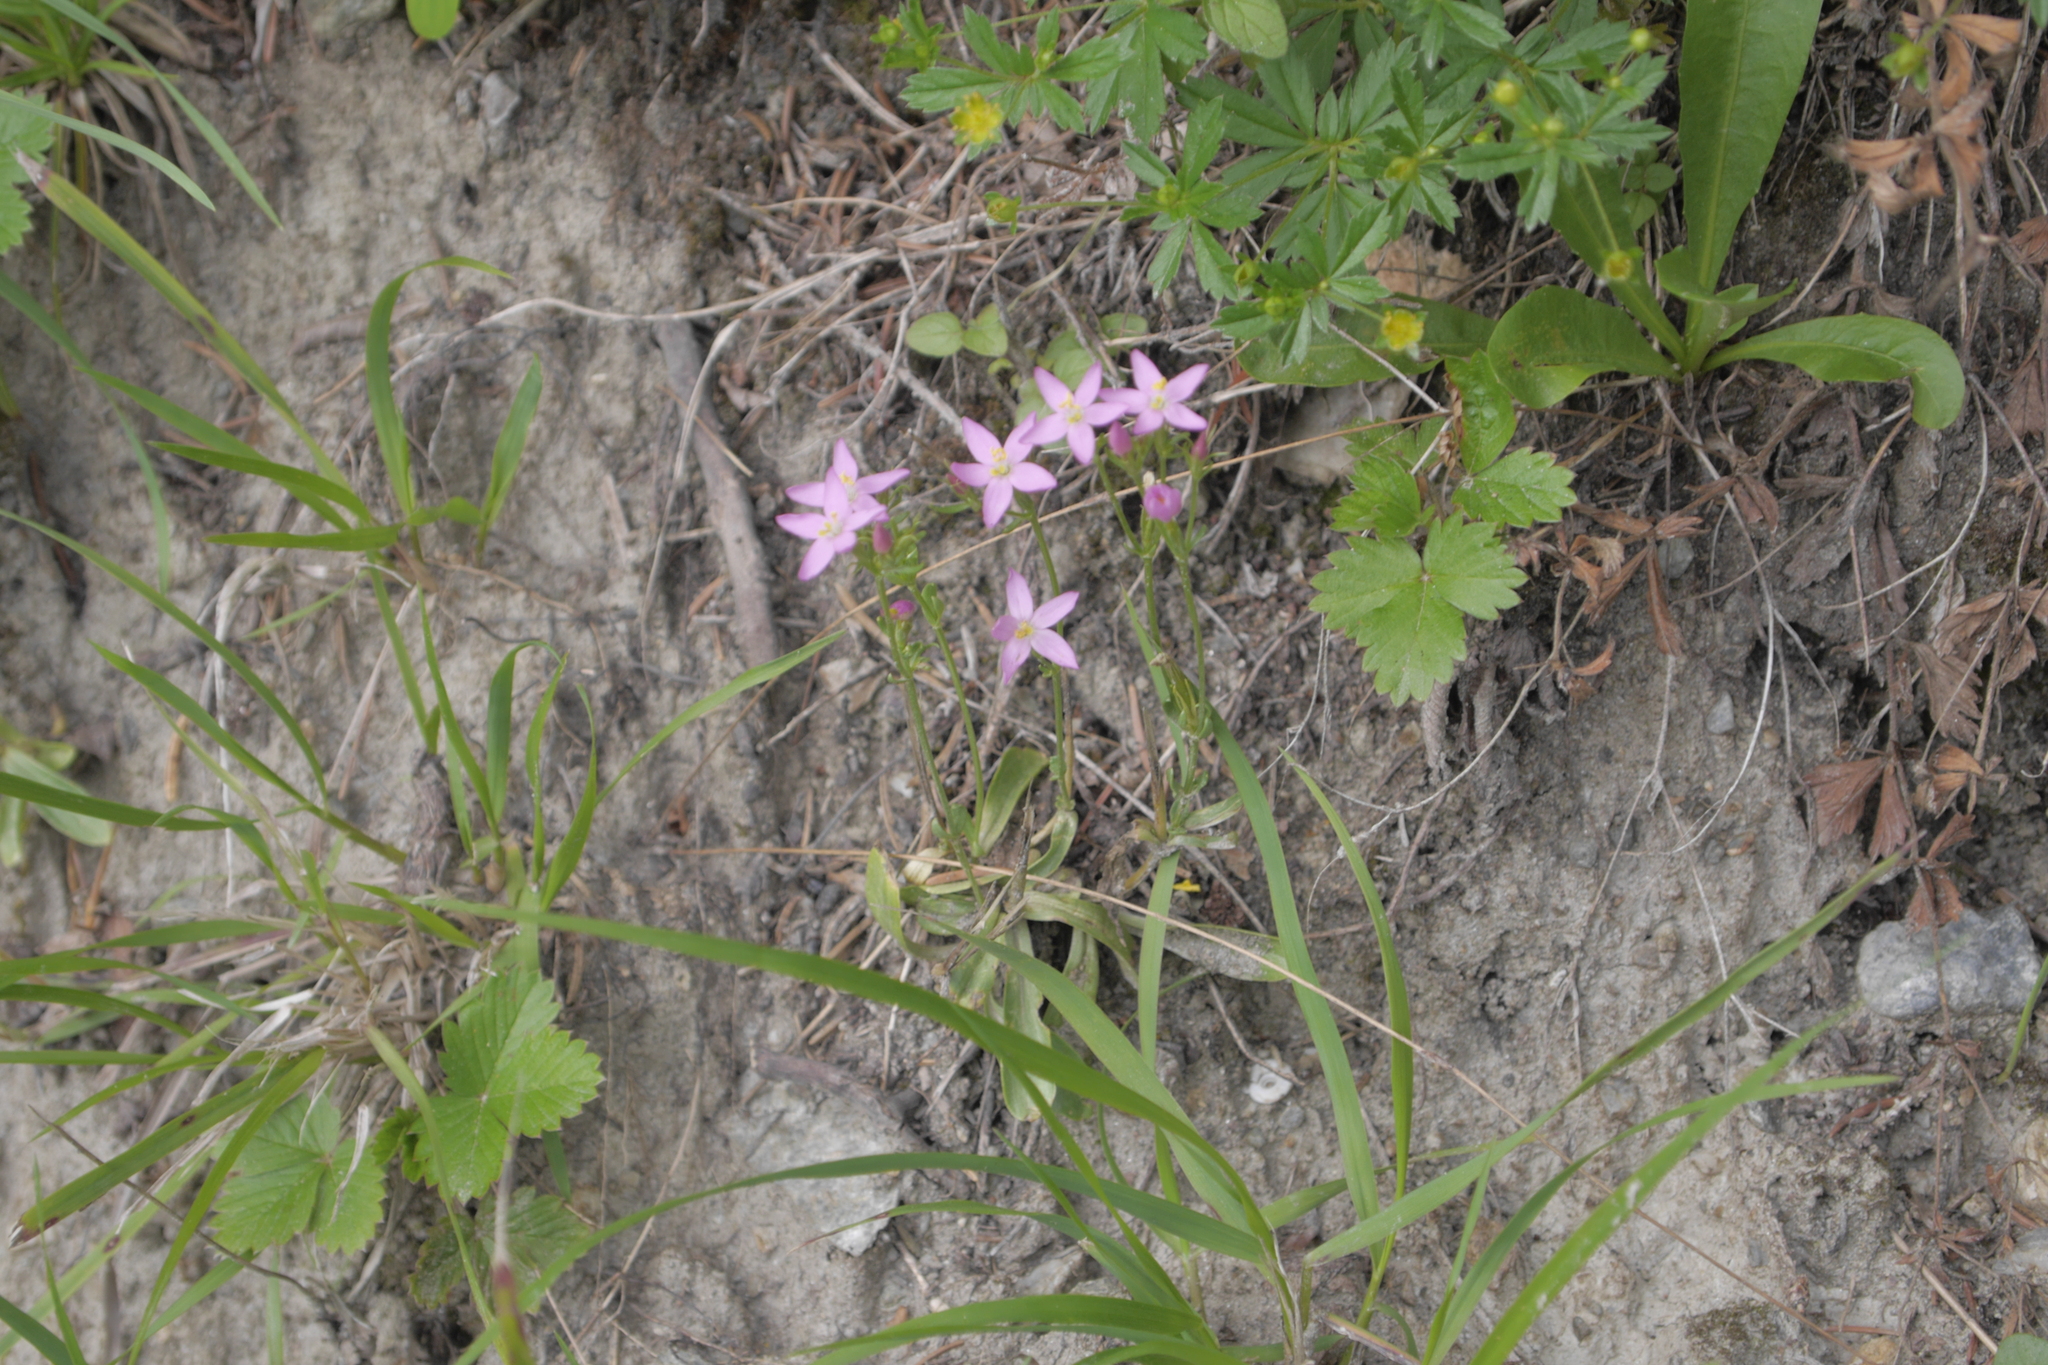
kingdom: Plantae
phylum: Tracheophyta
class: Magnoliopsida
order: Gentianales
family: Gentianaceae
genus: Centaurium
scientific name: Centaurium erythraea
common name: Common centaury
